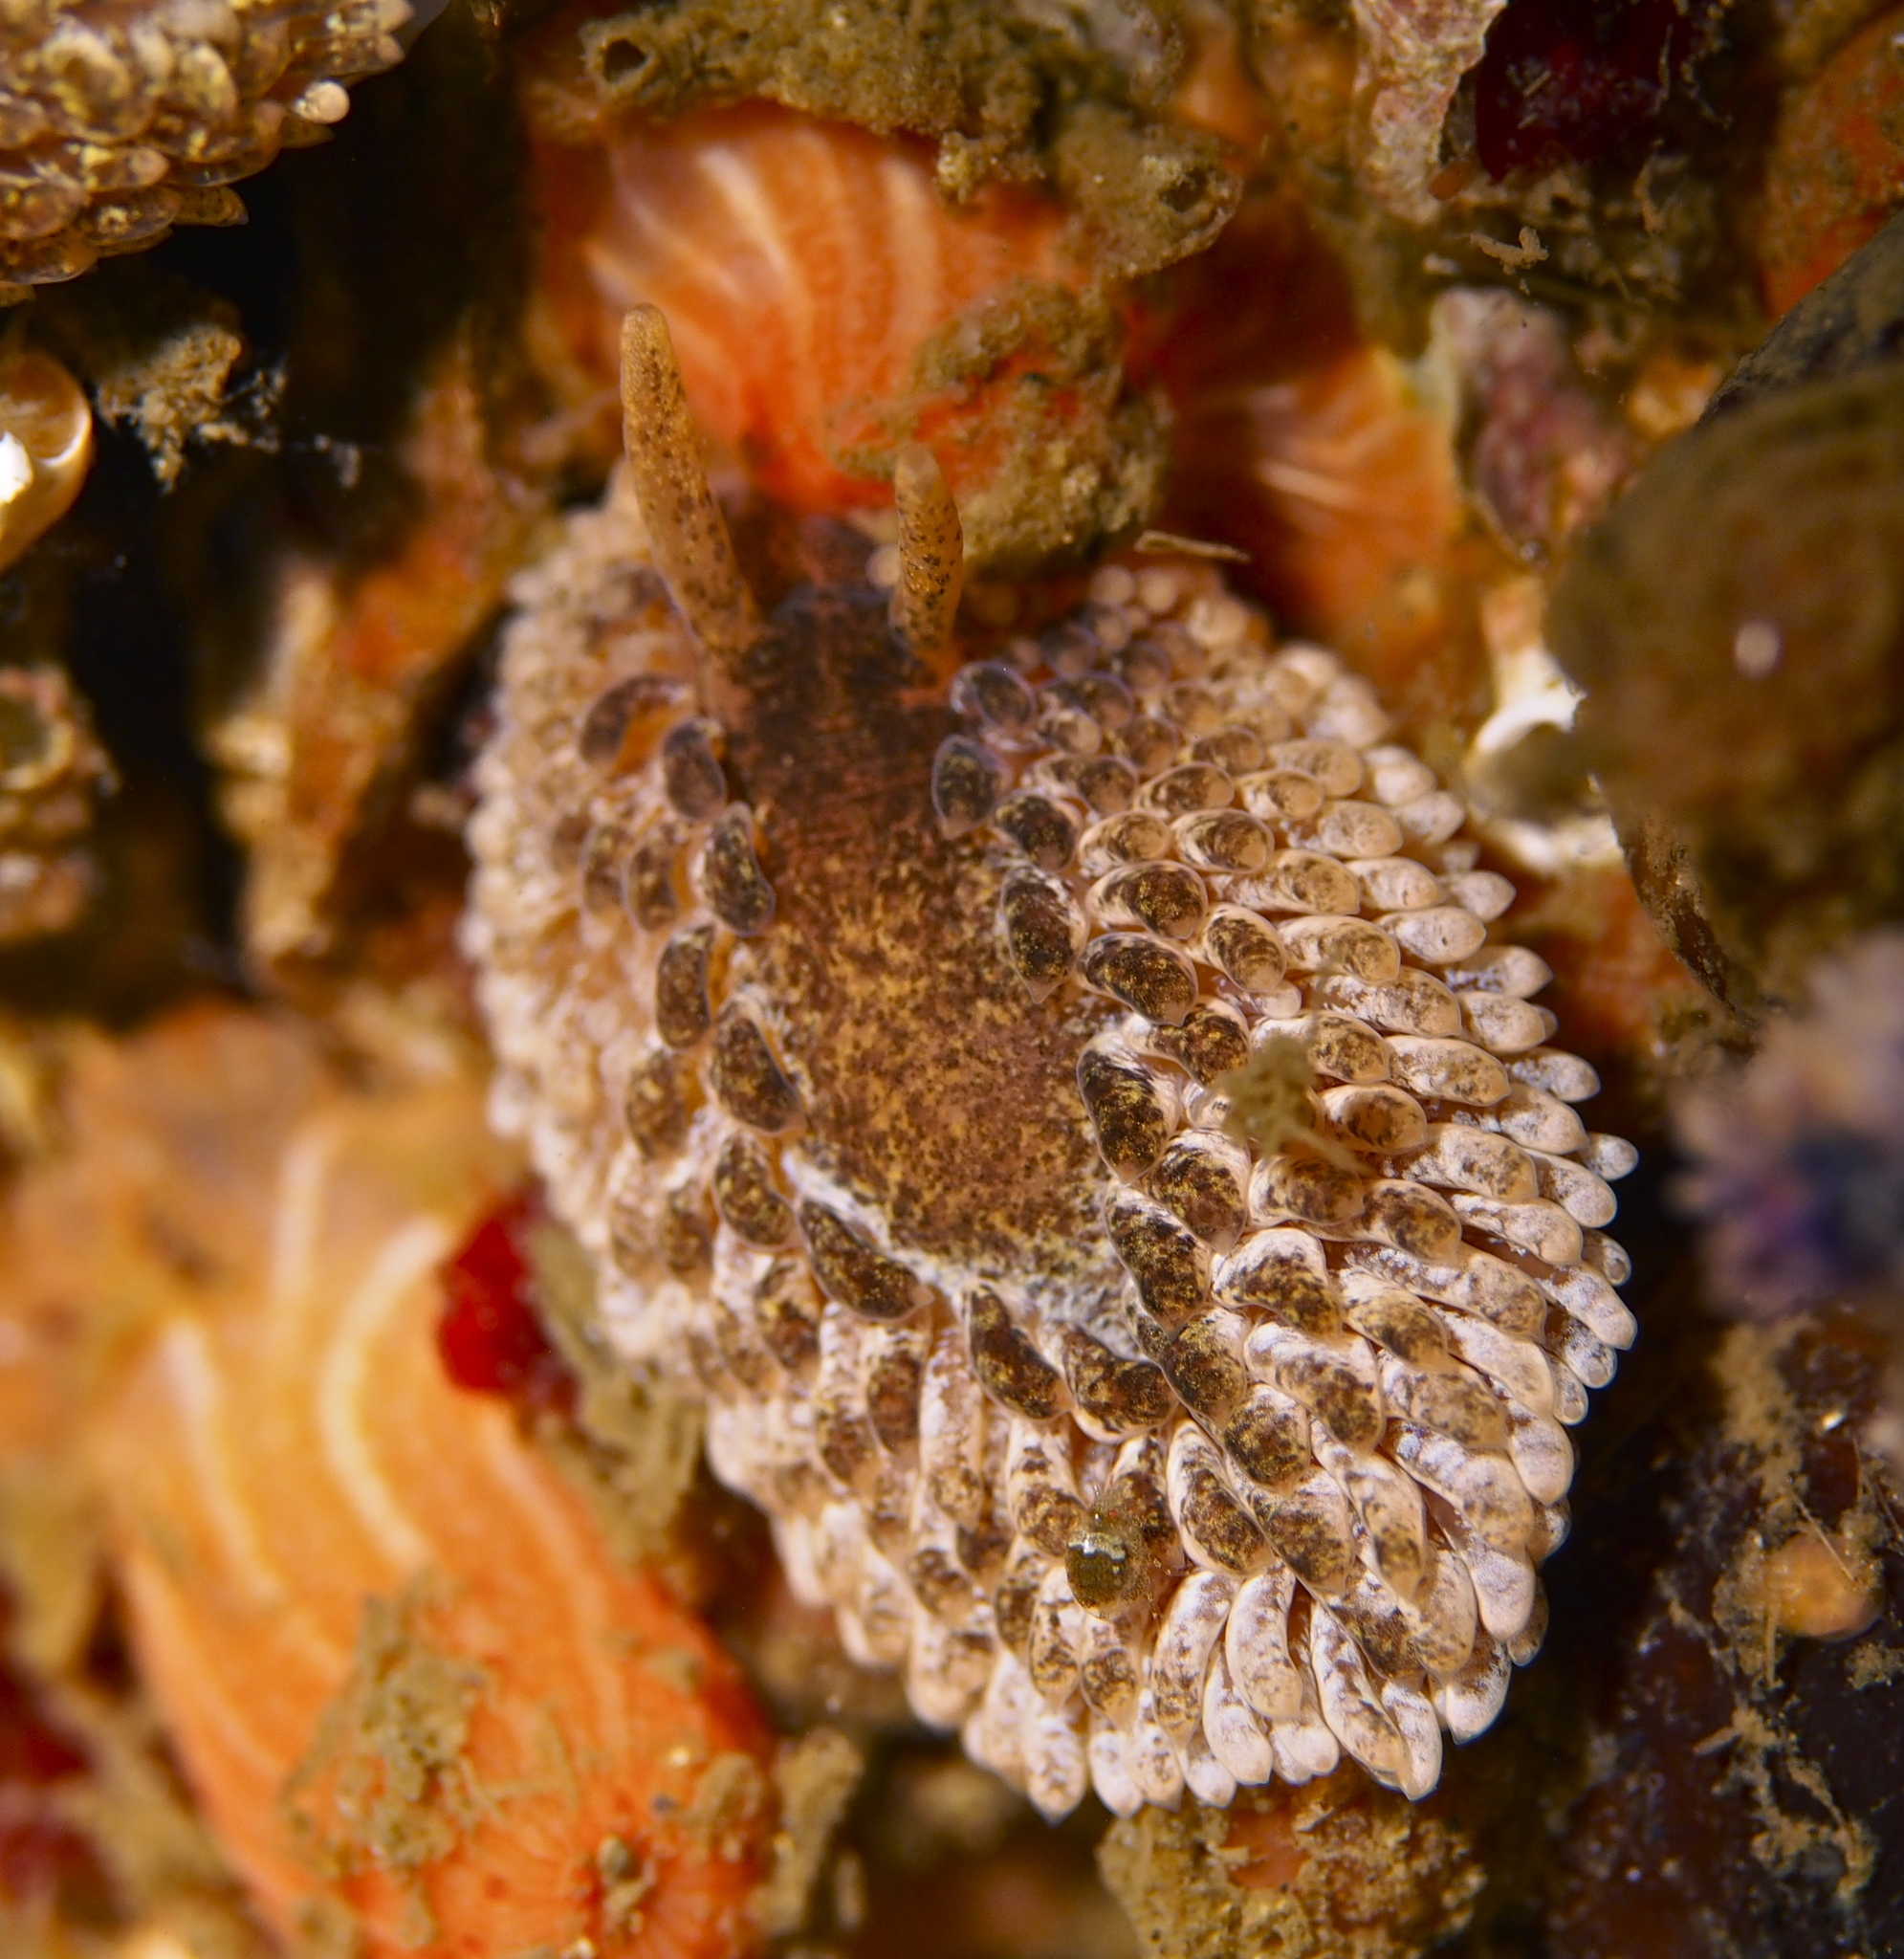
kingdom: Animalia
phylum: Mollusca
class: Gastropoda
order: Nudibranchia
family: Aeolidiidae
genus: Aeolidia
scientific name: Aeolidia papillosa
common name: Common grey sea slug
